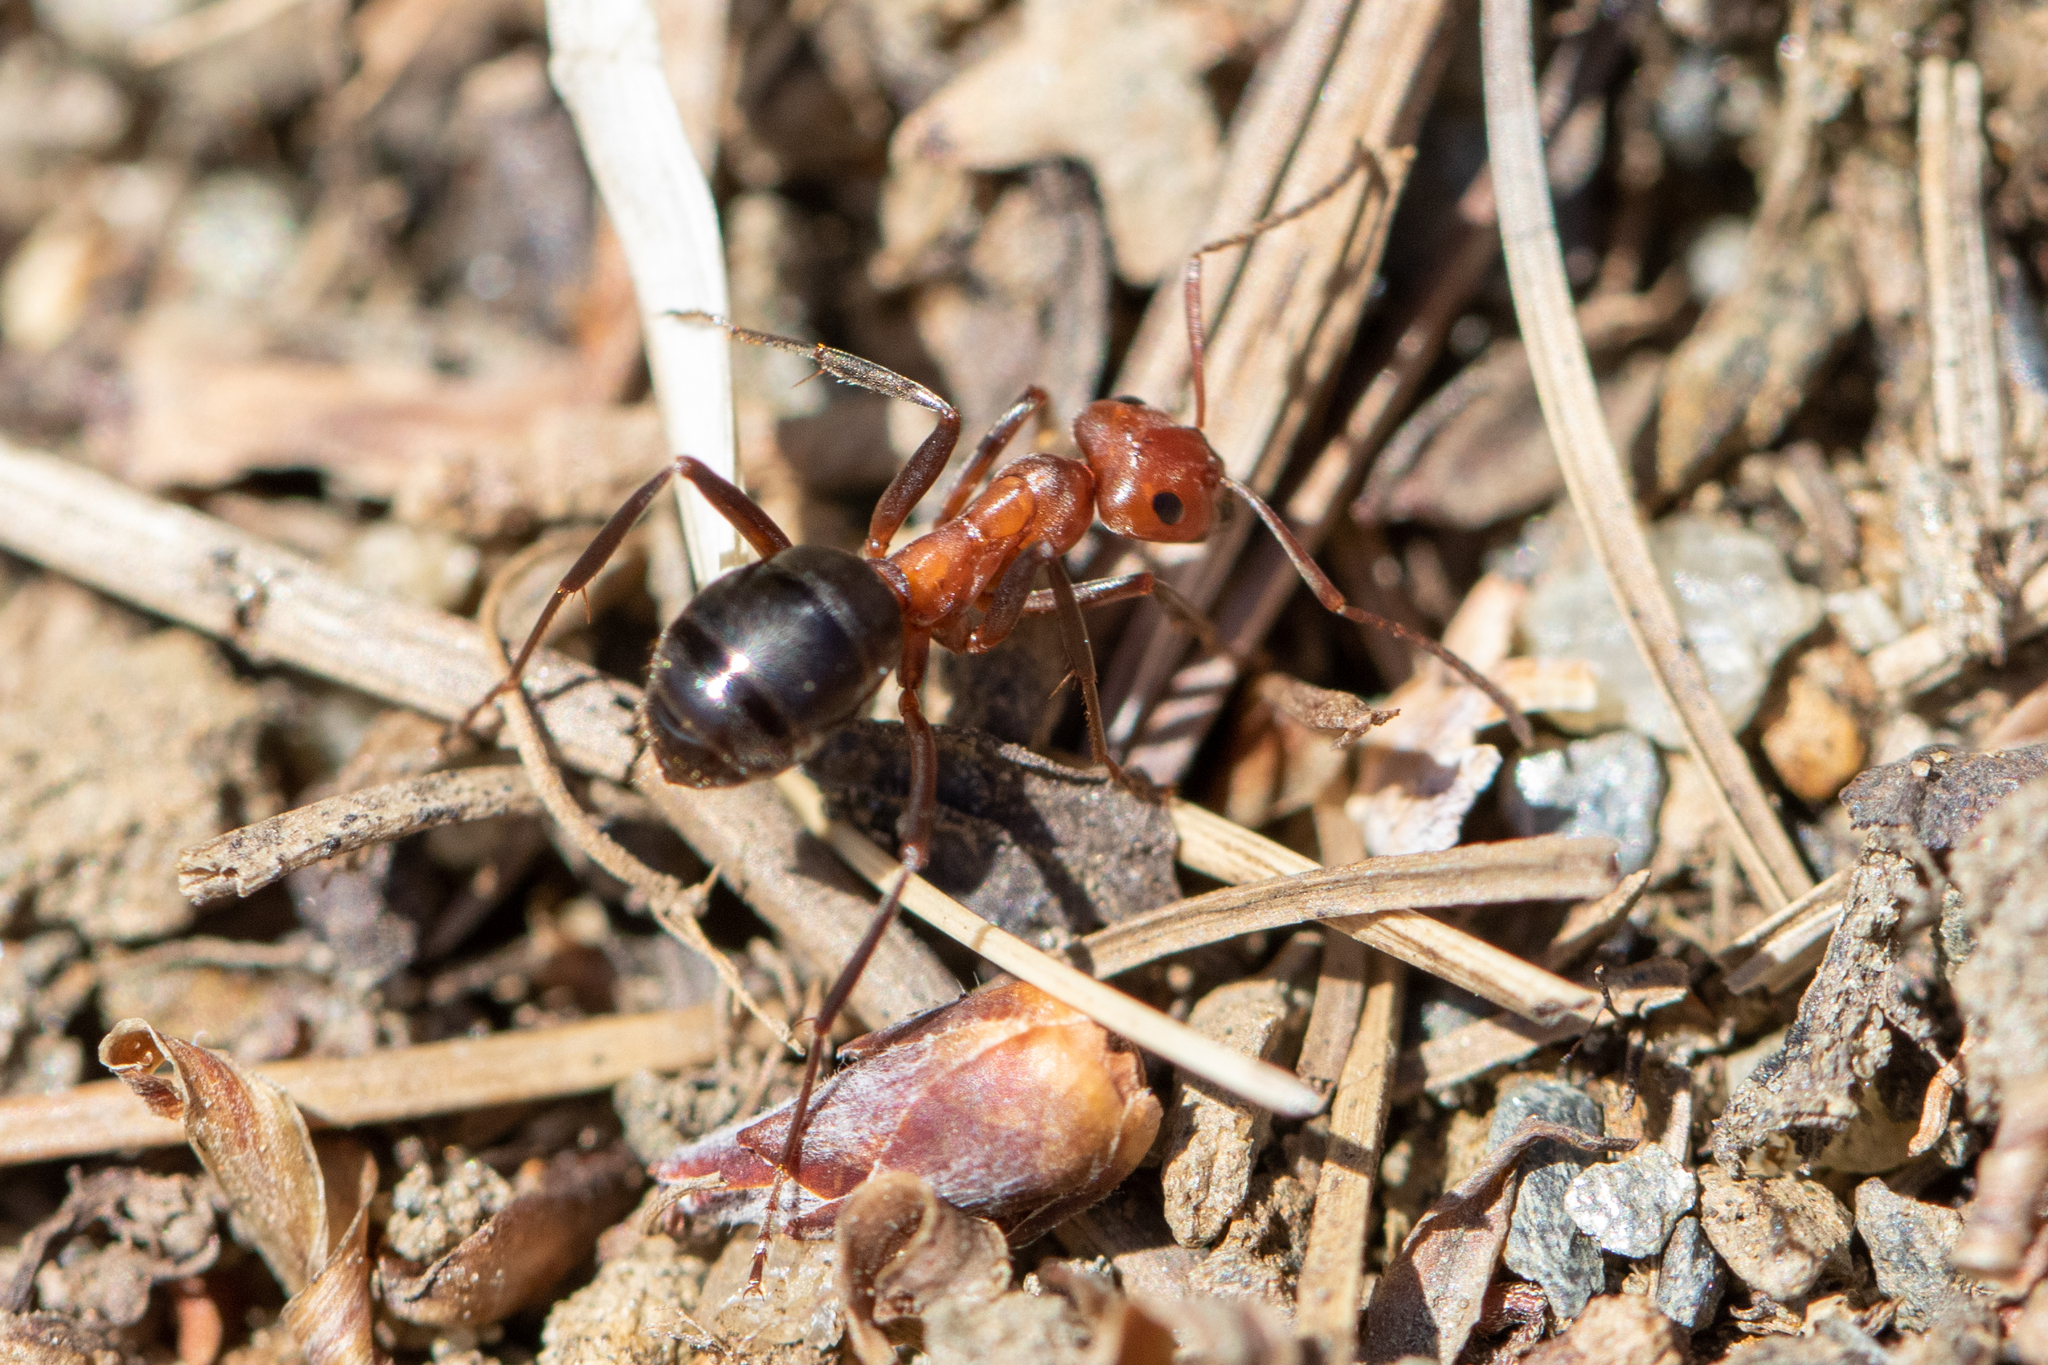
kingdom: Animalia
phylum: Arthropoda
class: Insecta
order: Hymenoptera
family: Formicidae
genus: Formica
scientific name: Formica exsectoides
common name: Allegheny mound ant
